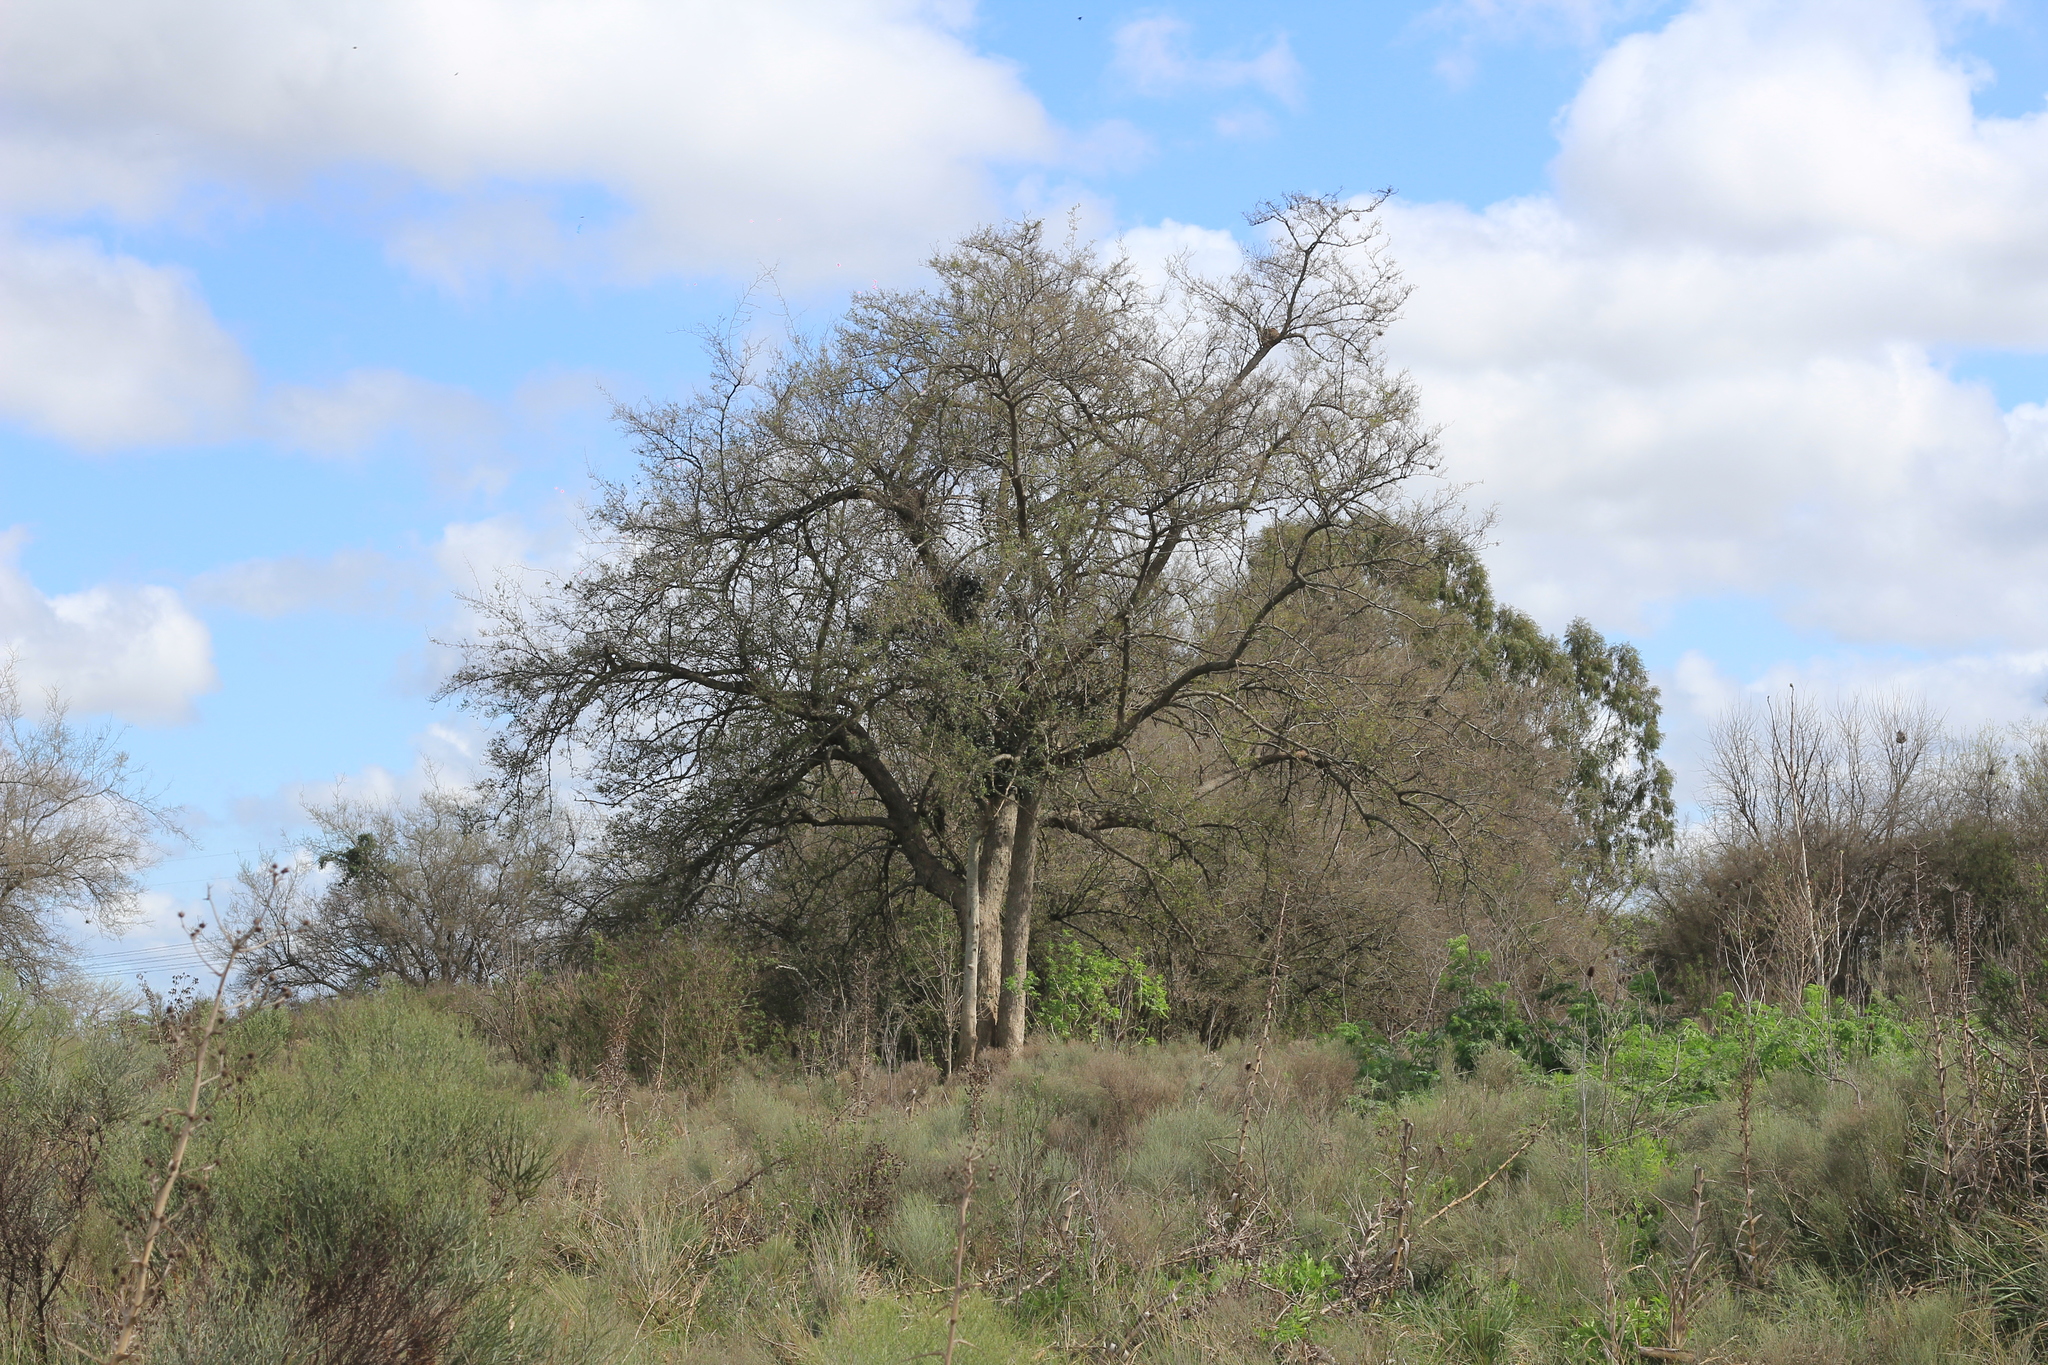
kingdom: Plantae
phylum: Tracheophyta
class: Magnoliopsida
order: Rosales
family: Cannabaceae
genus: Celtis
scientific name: Celtis tala
